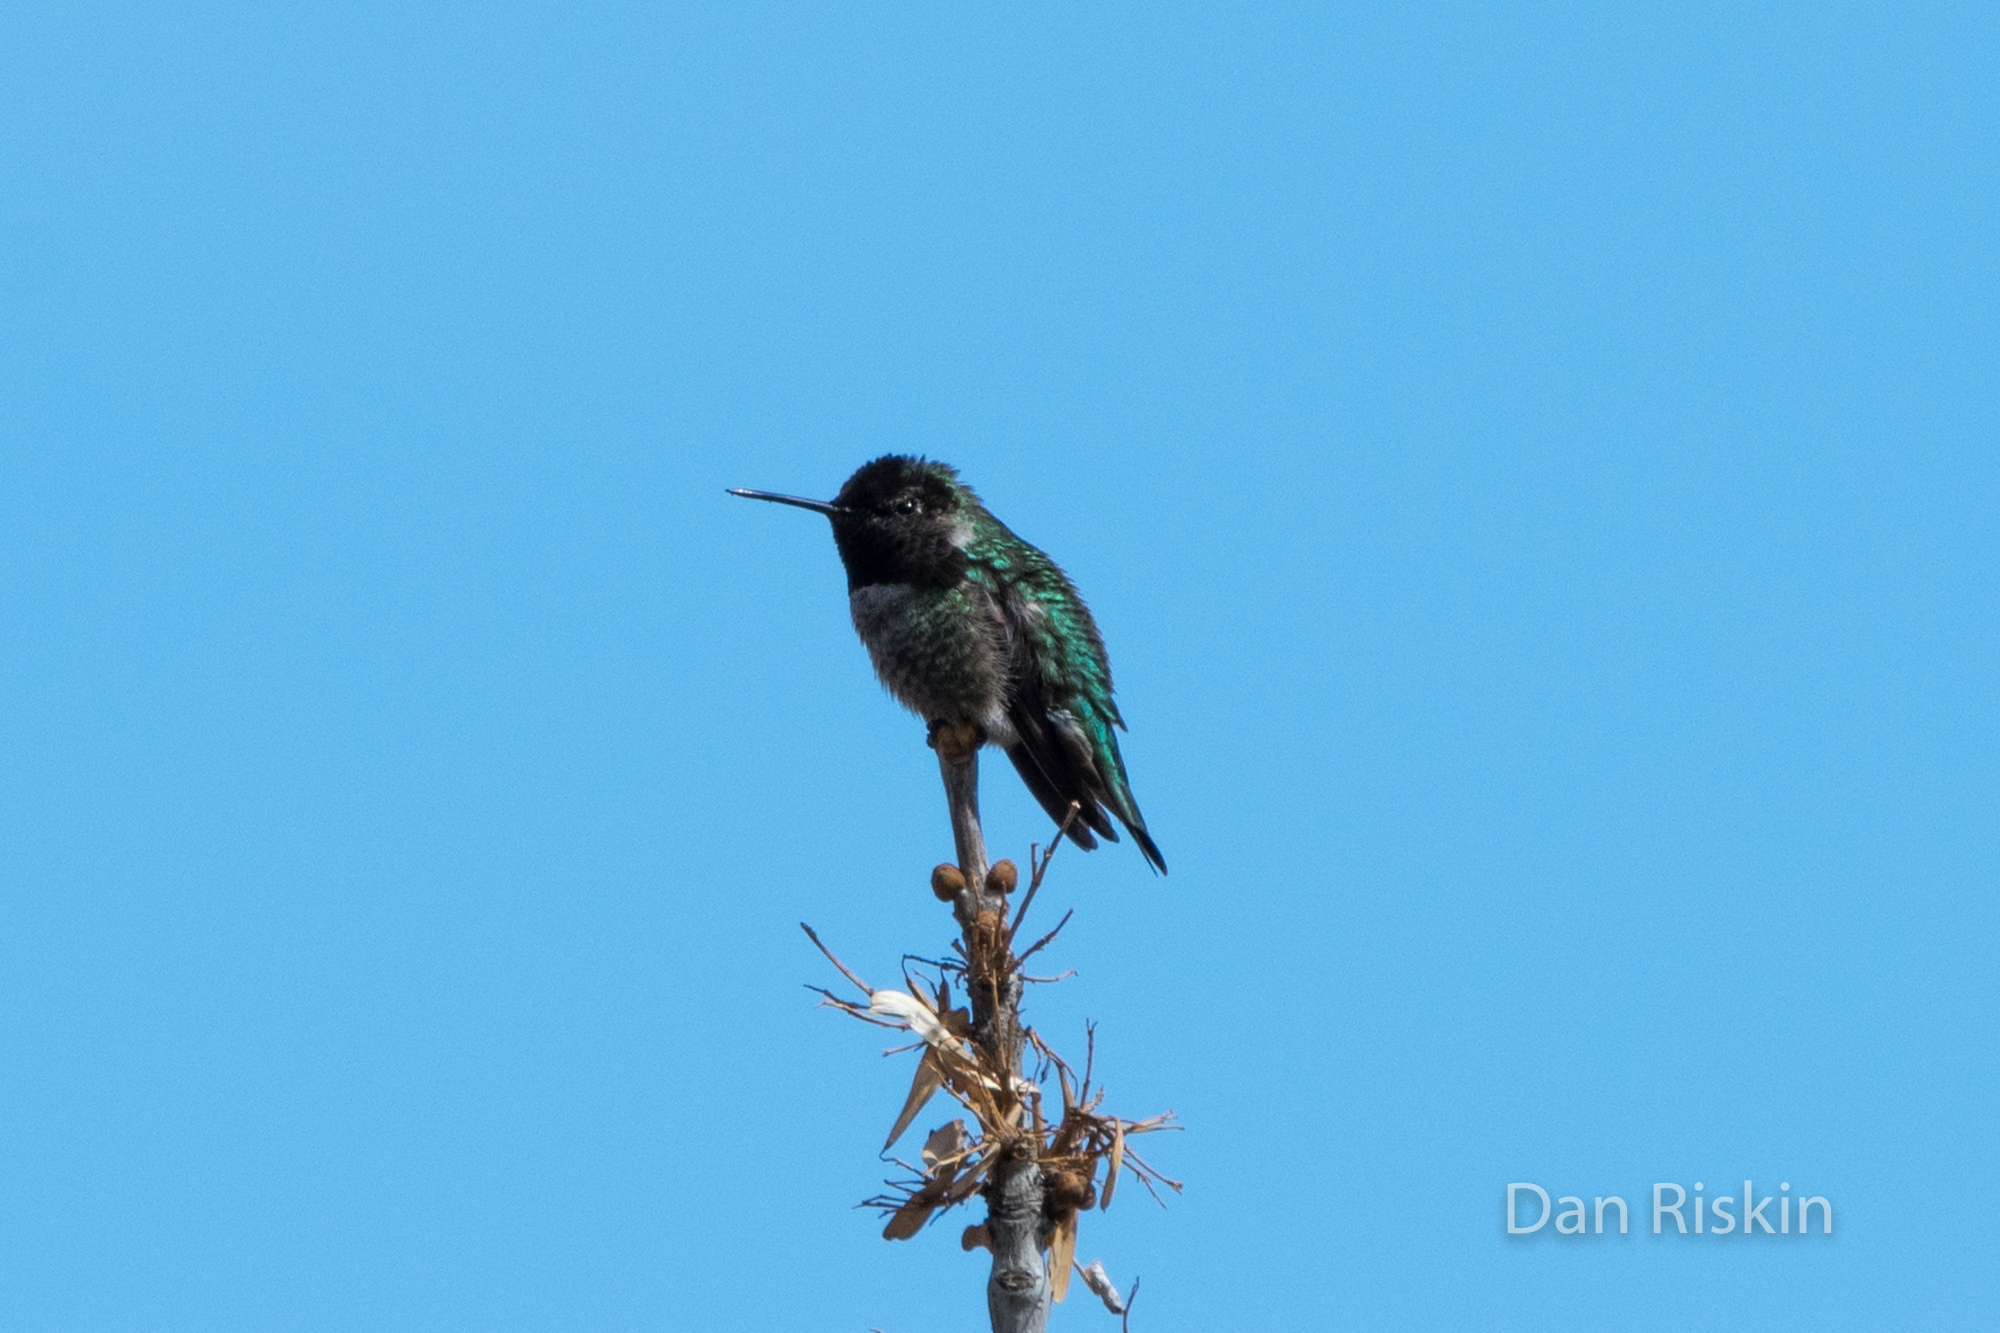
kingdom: Animalia
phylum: Chordata
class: Aves
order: Apodiformes
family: Trochilidae
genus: Calypte
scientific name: Calypte anna
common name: Anna's hummingbird
